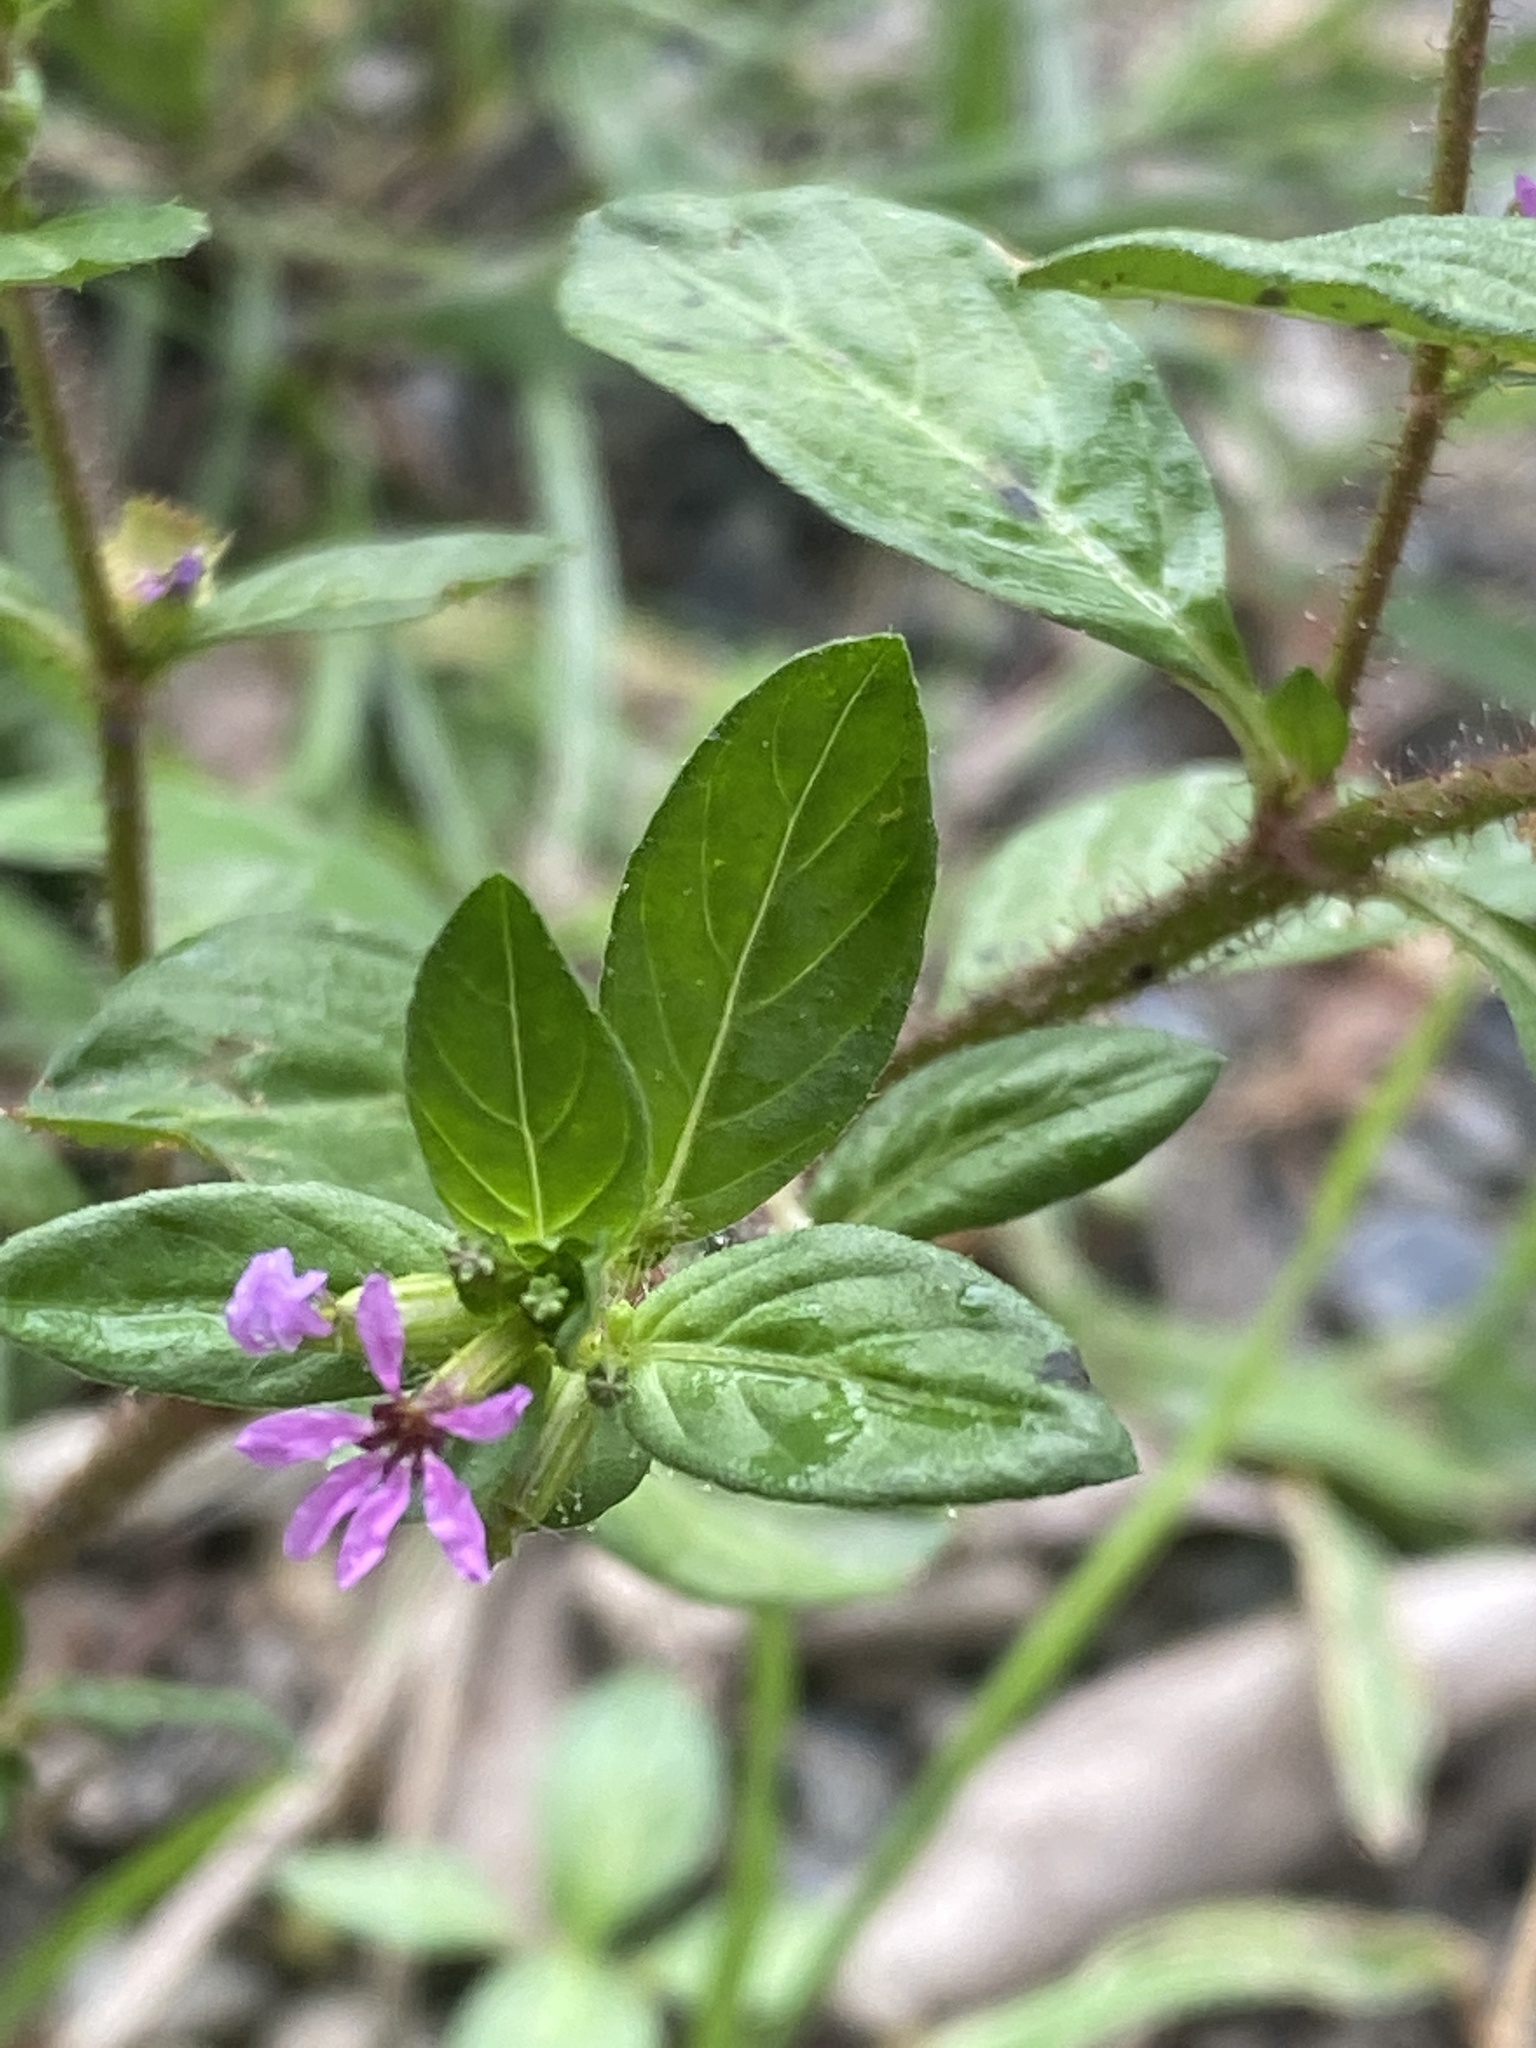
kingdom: Plantae
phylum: Tracheophyta
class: Magnoliopsida
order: Myrtales
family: Lythraceae
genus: Cuphea
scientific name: Cuphea carthagenensis
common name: Colombian waxweed
